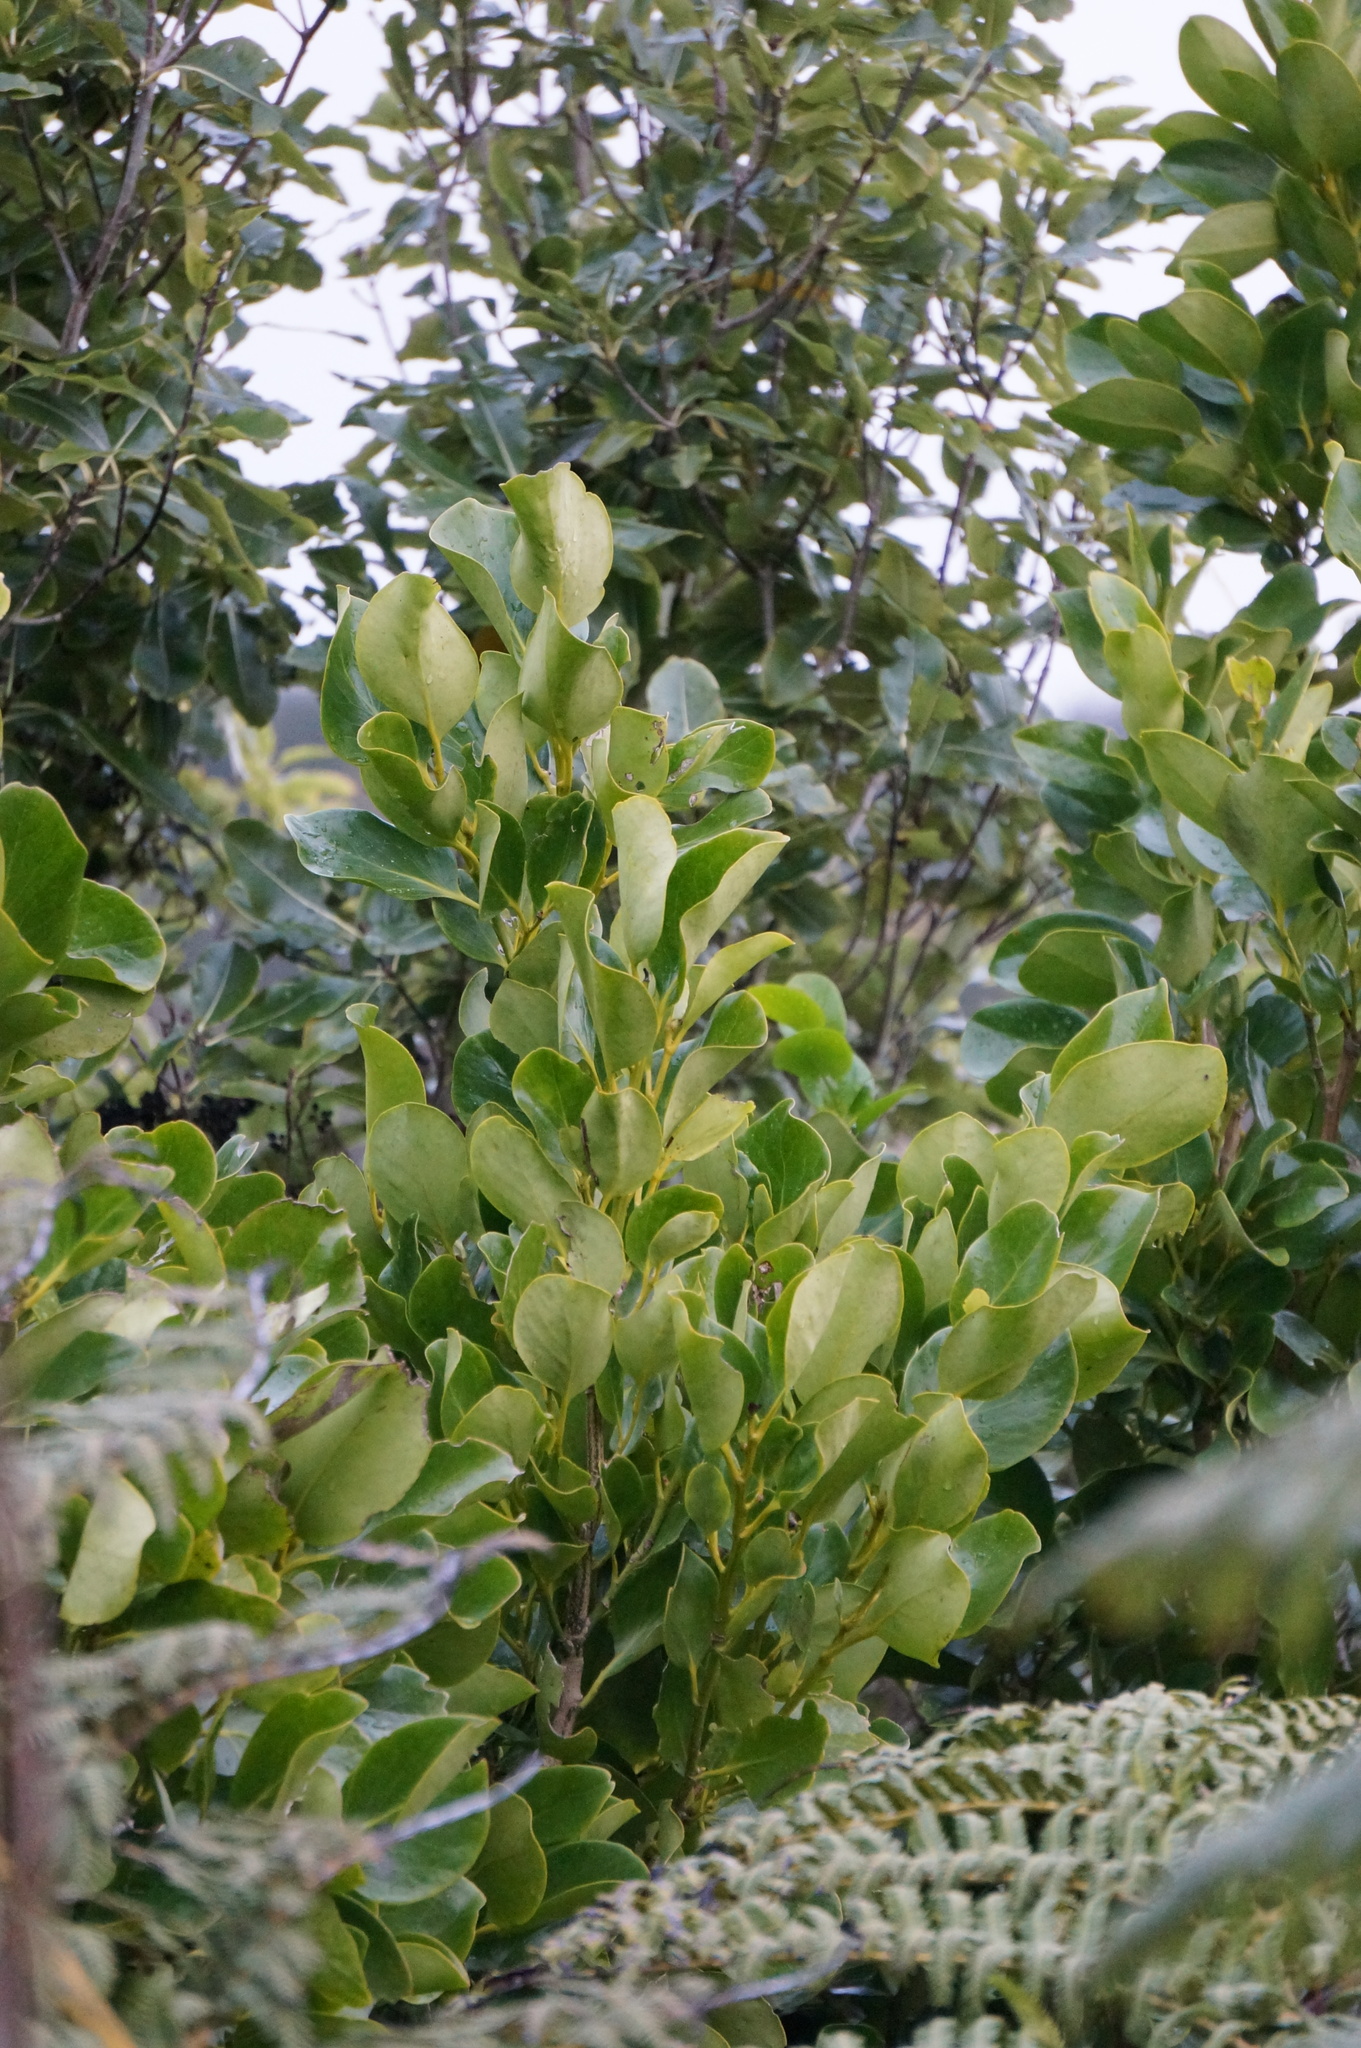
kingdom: Plantae
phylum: Tracheophyta
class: Magnoliopsida
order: Apiales
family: Griseliniaceae
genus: Griselinia
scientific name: Griselinia littoralis
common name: New zealand broadleaf
